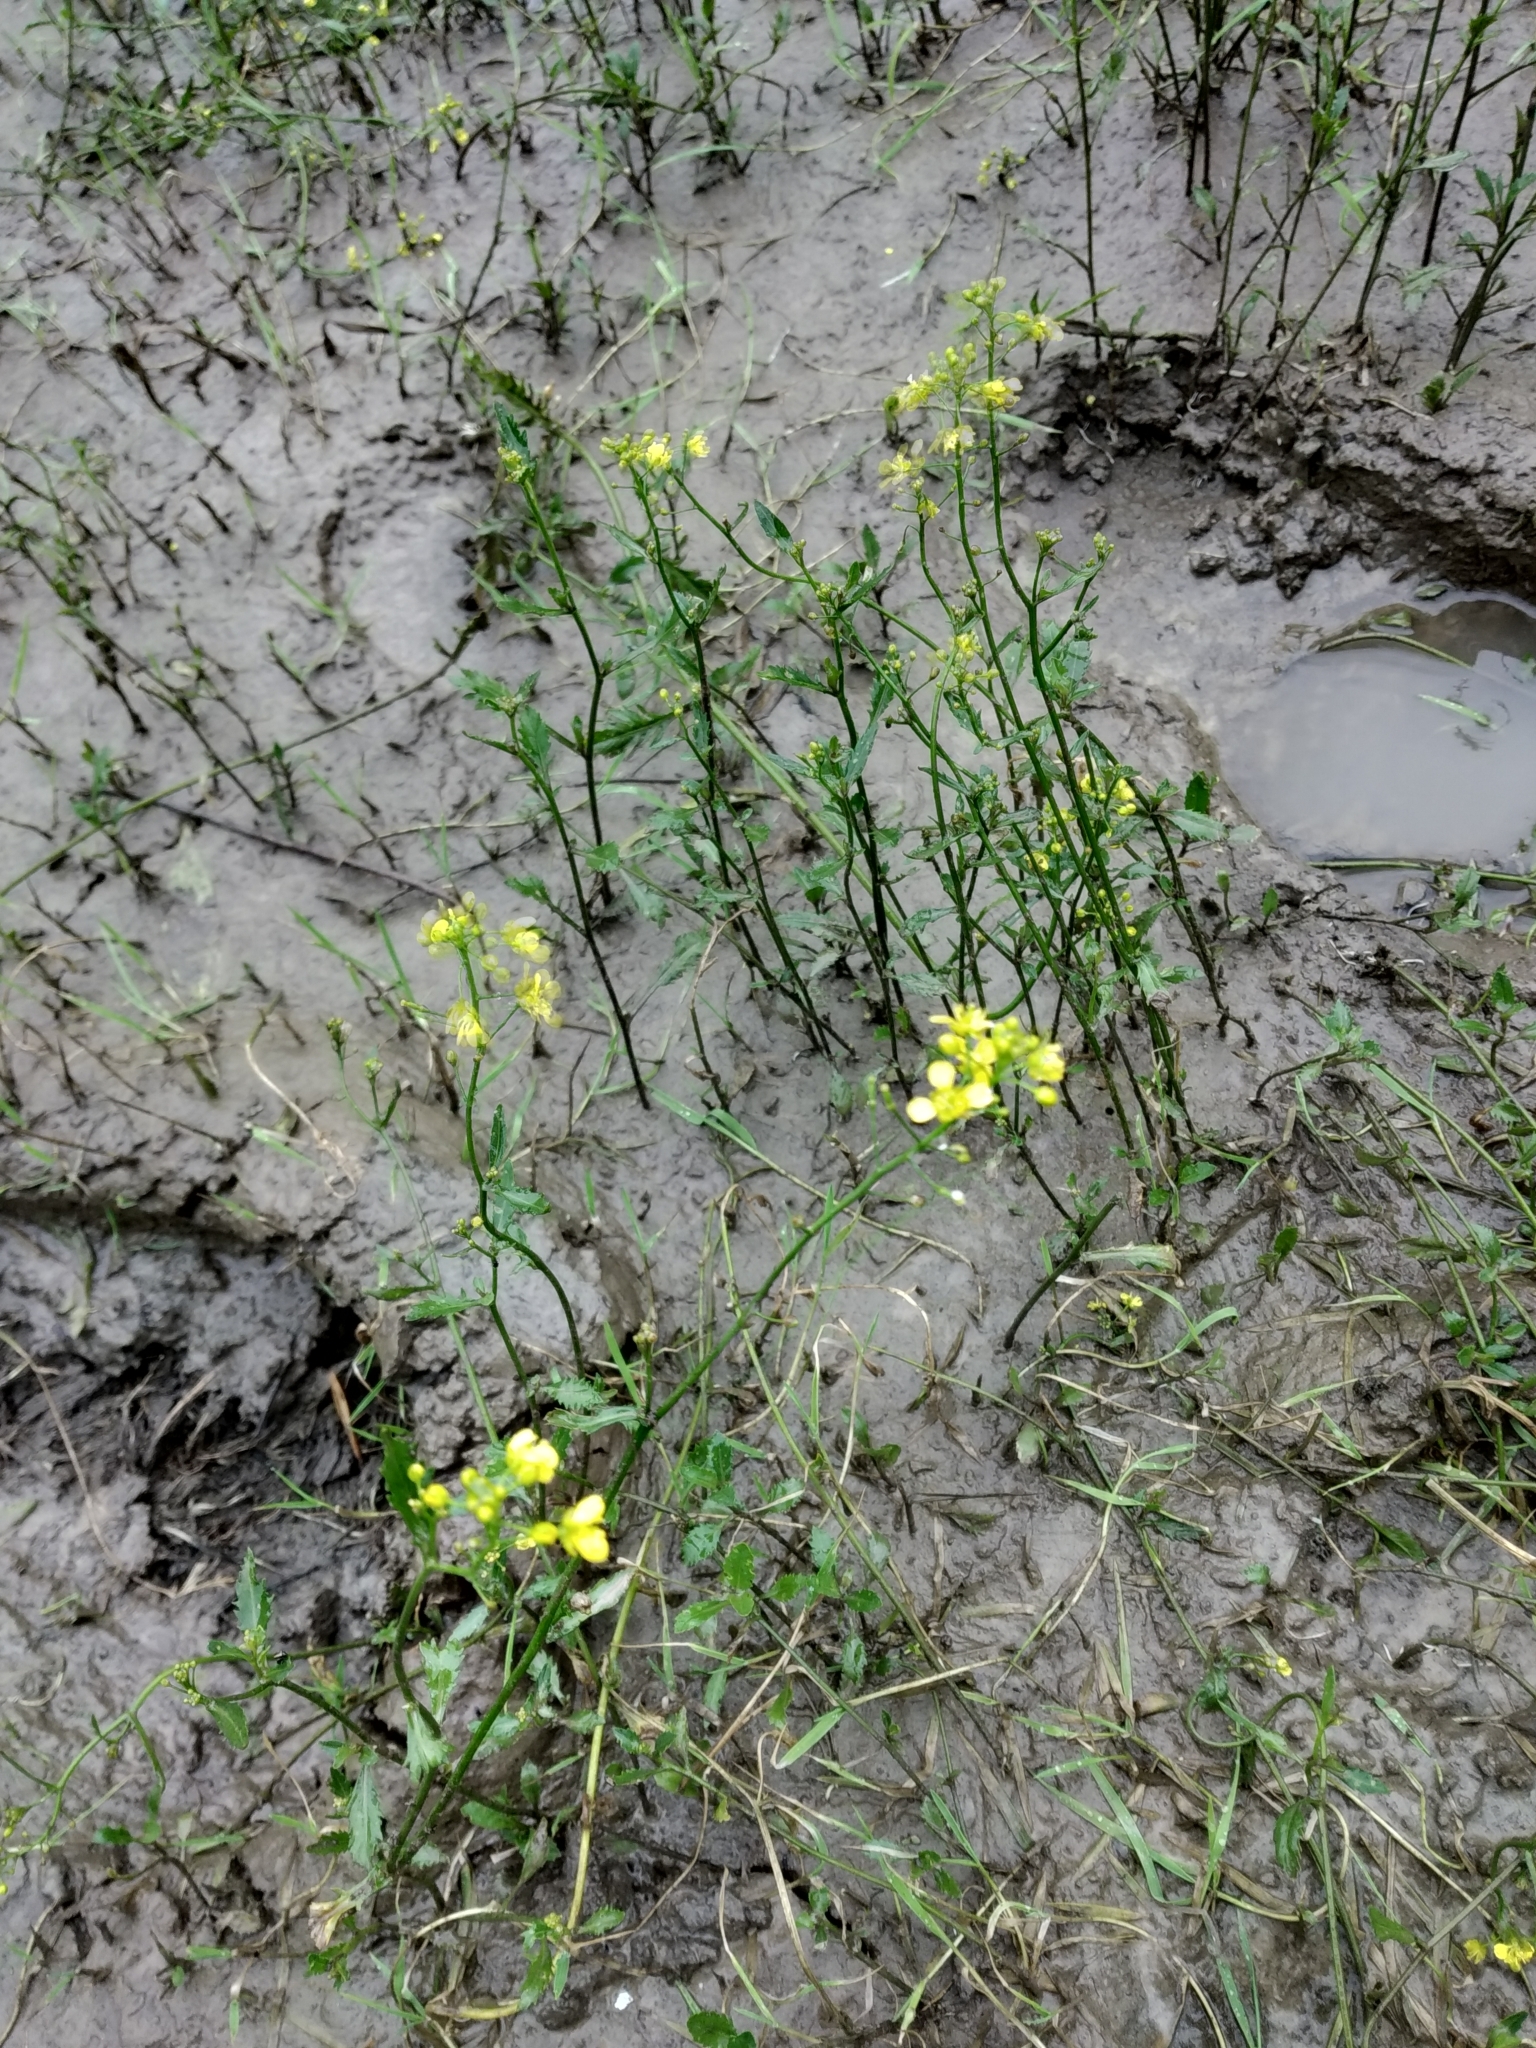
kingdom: Plantae
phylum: Tracheophyta
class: Magnoliopsida
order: Brassicales
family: Brassicaceae
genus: Rorippa
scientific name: Rorippa amphibia
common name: Great yellow-cress
